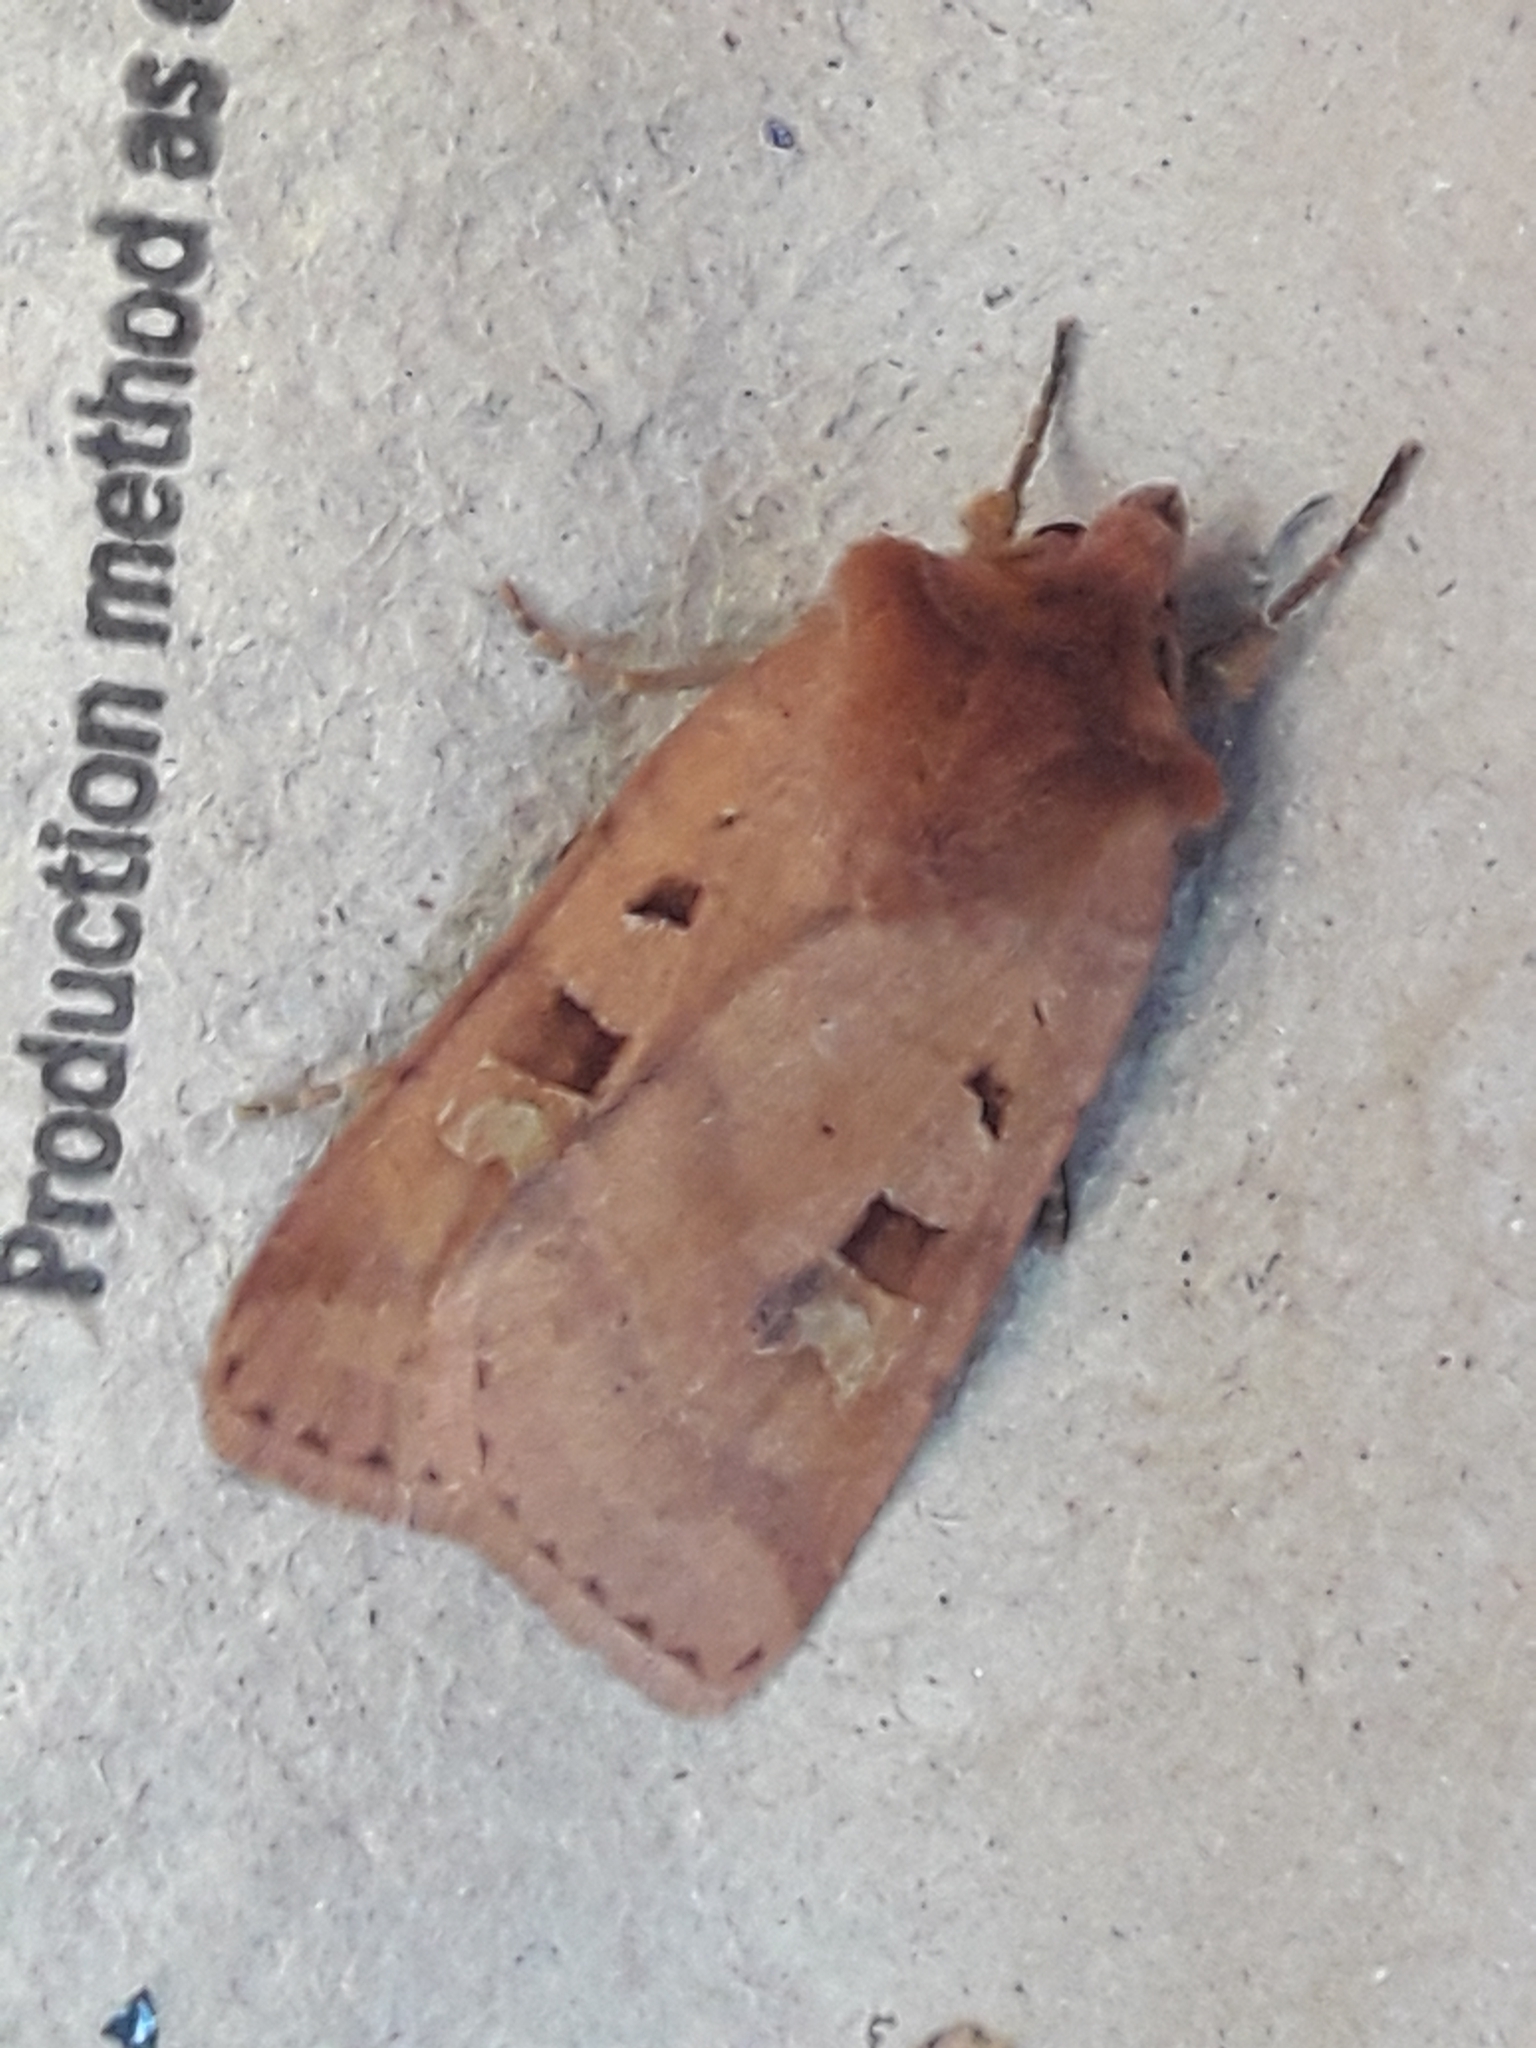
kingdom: Animalia
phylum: Arthropoda
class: Insecta
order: Lepidoptera
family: Noctuidae
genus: Diarsia
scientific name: Diarsia mendica
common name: Ingrailed clay
